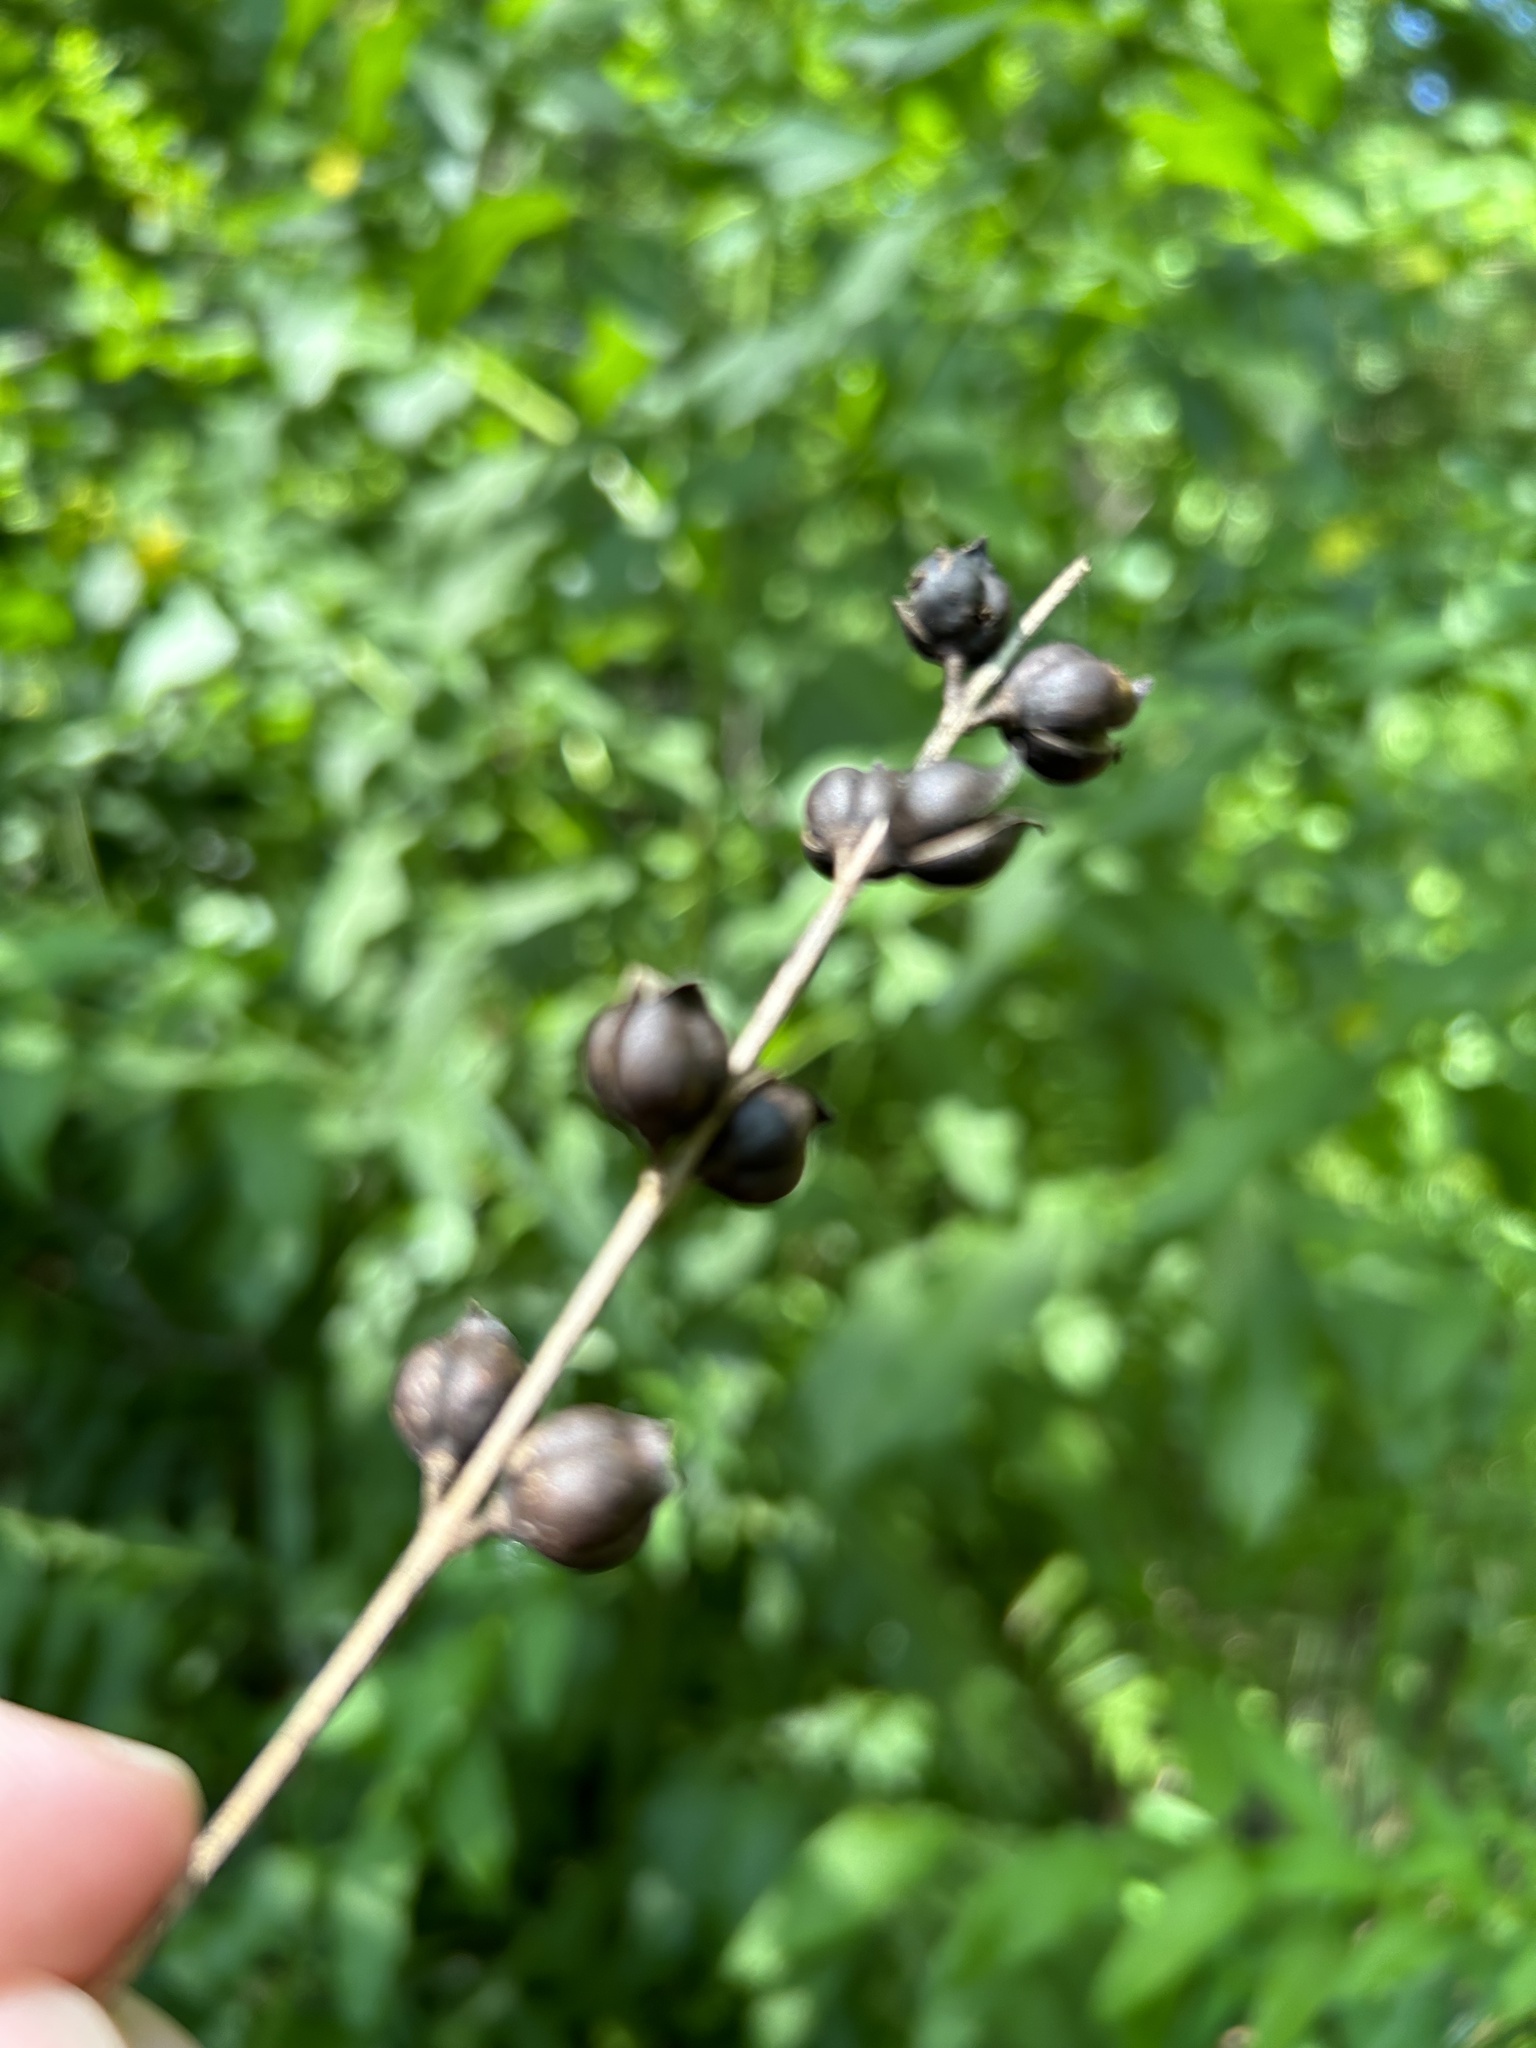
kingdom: Plantae
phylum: Tracheophyta
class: Magnoliopsida
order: Lamiales
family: Orobanchaceae
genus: Dasistoma
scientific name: Dasistoma macrophyllum
